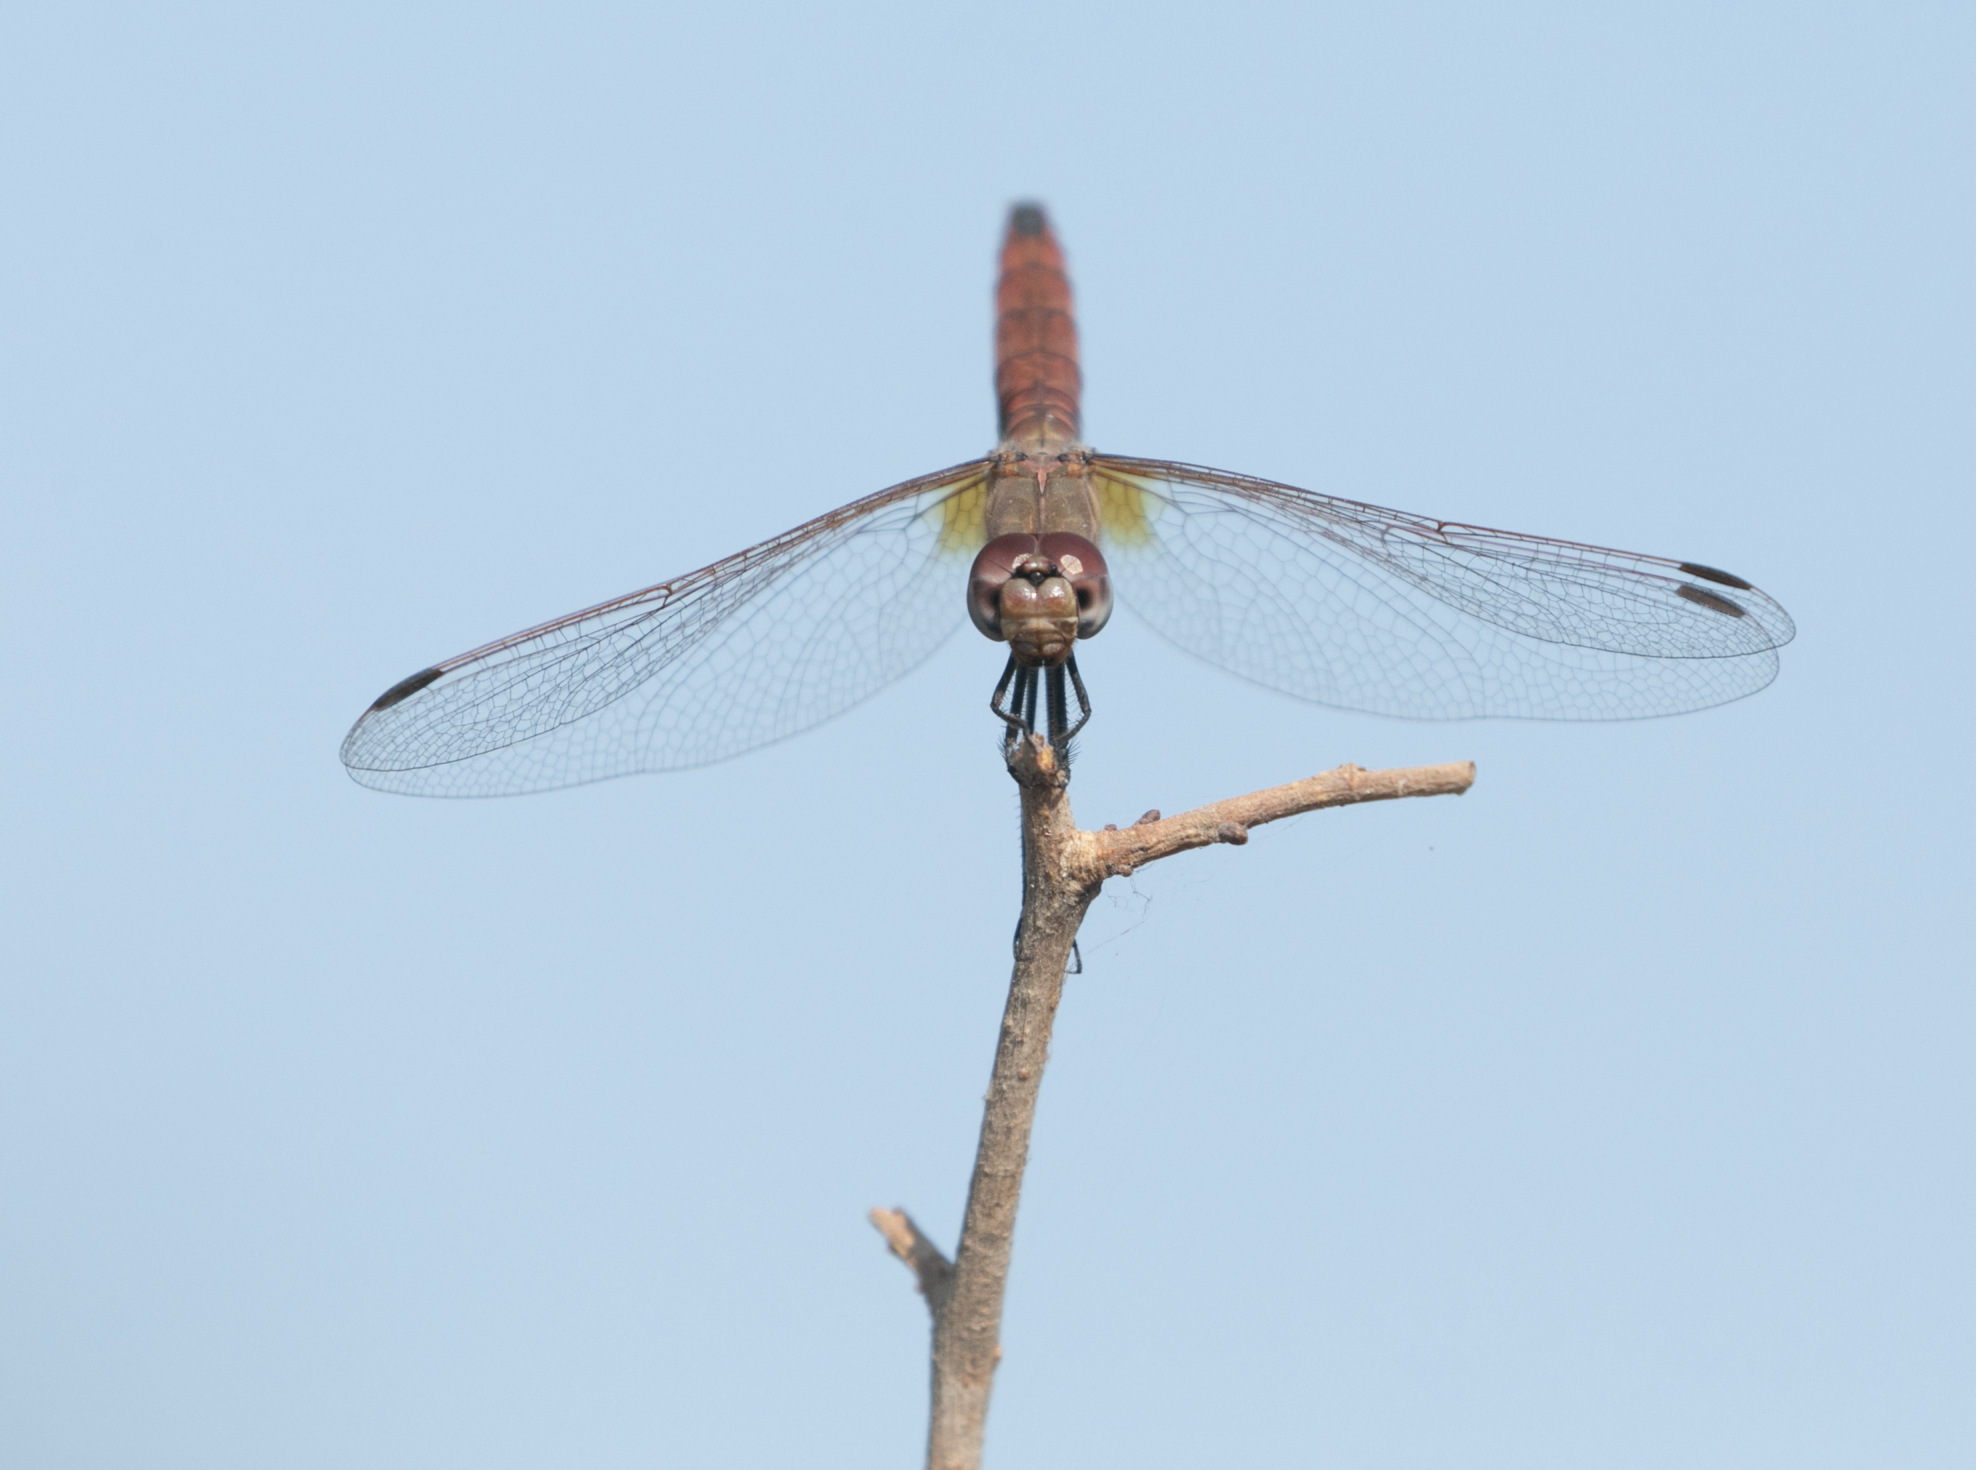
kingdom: Animalia
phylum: Arthropoda
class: Insecta
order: Odonata
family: Libellulidae
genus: Trithemis
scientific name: Trithemis annulata
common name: Violet dropwing
